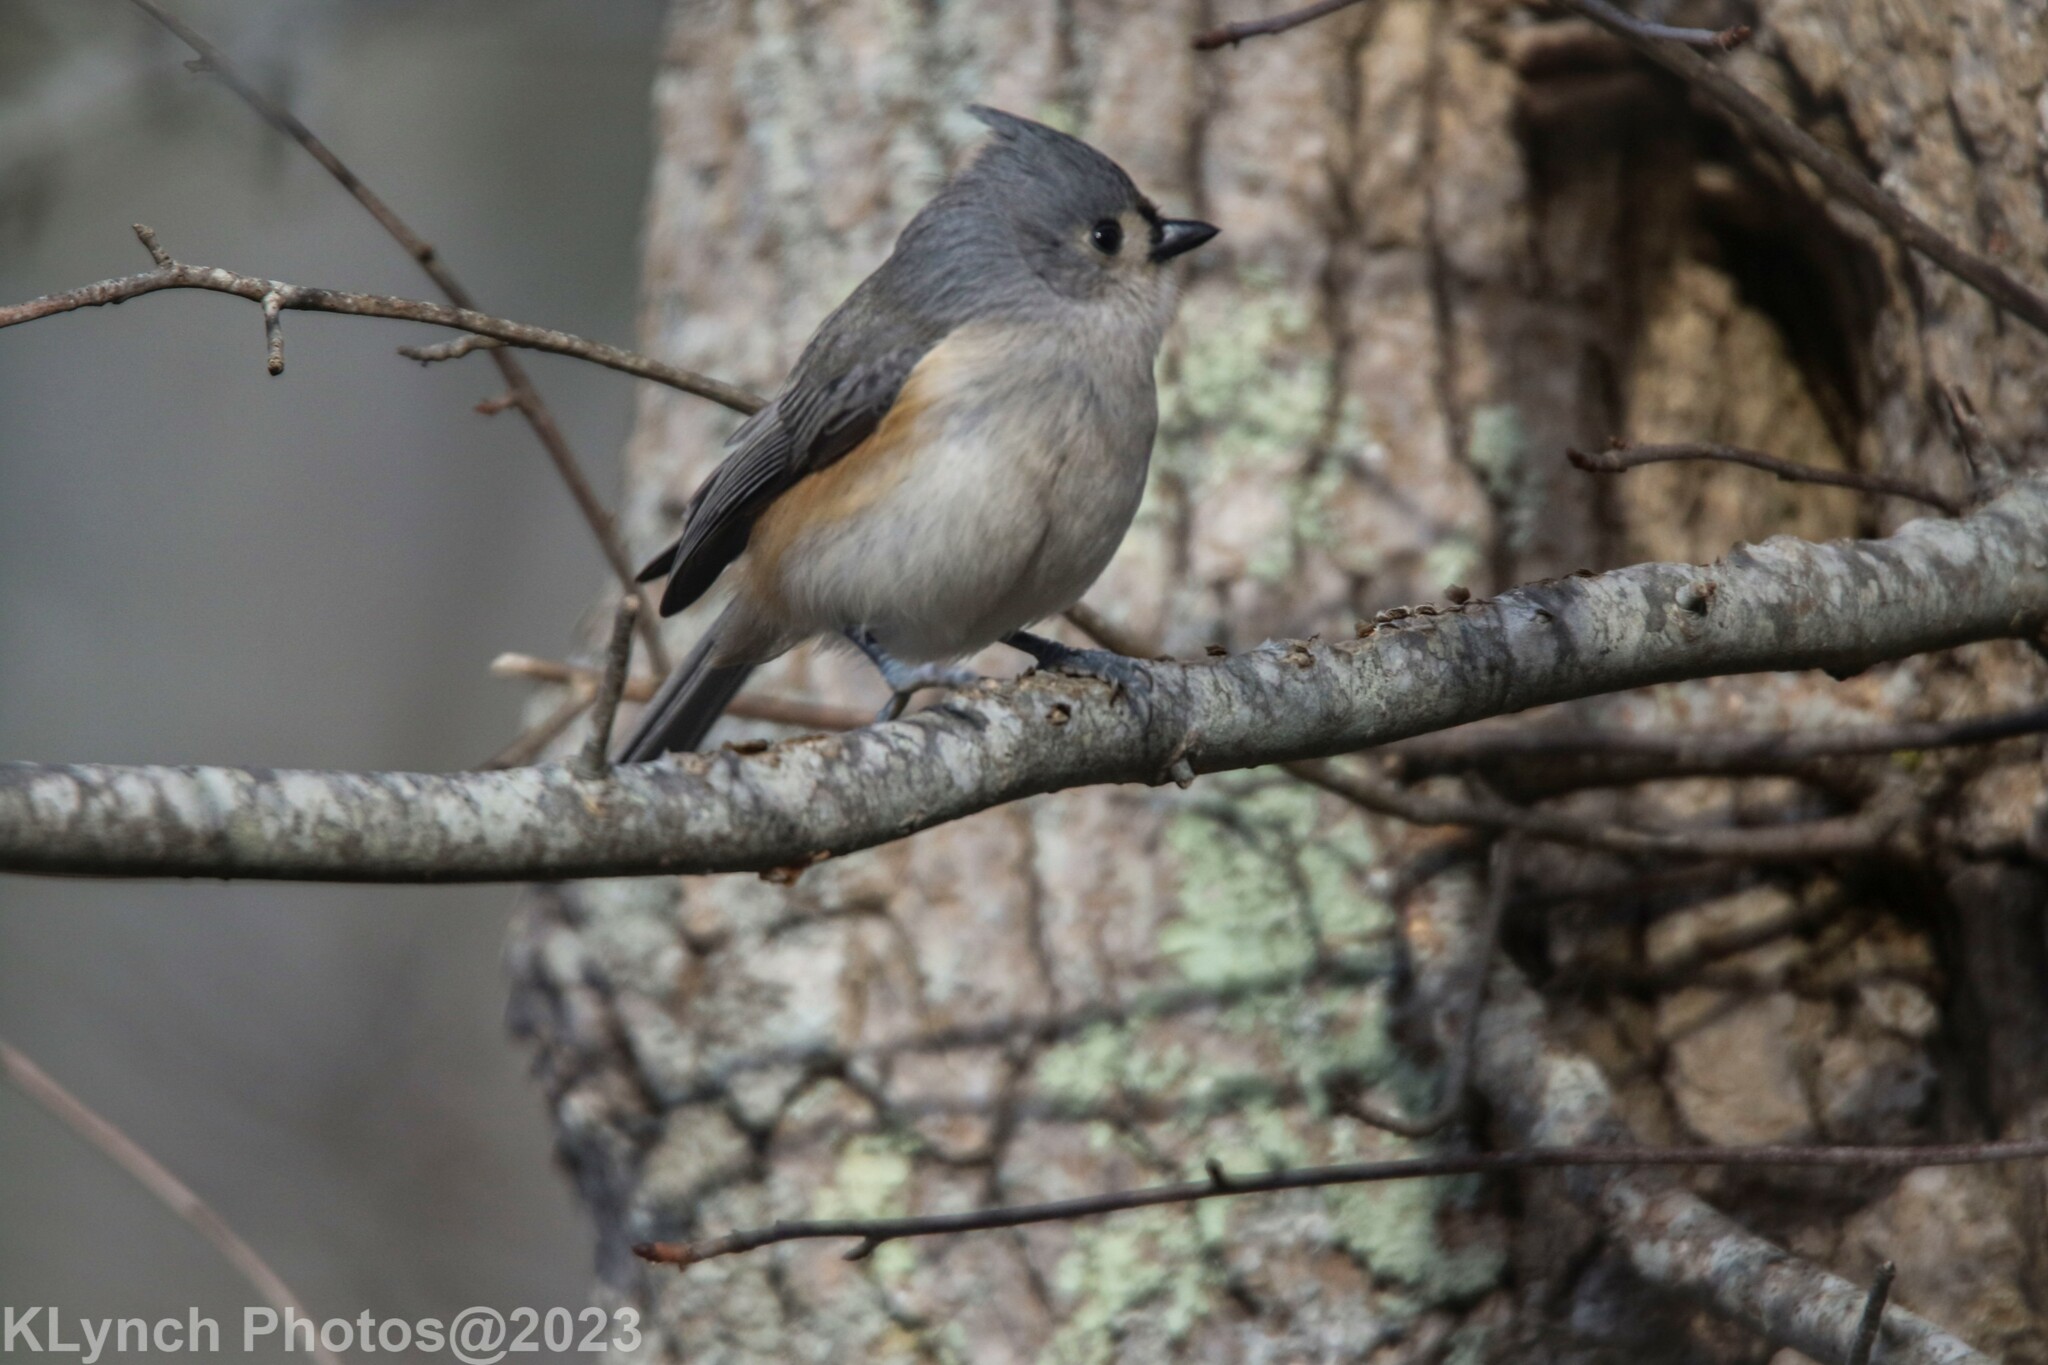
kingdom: Animalia
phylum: Chordata
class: Aves
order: Passeriformes
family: Paridae
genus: Baeolophus
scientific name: Baeolophus bicolor
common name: Tufted titmouse
